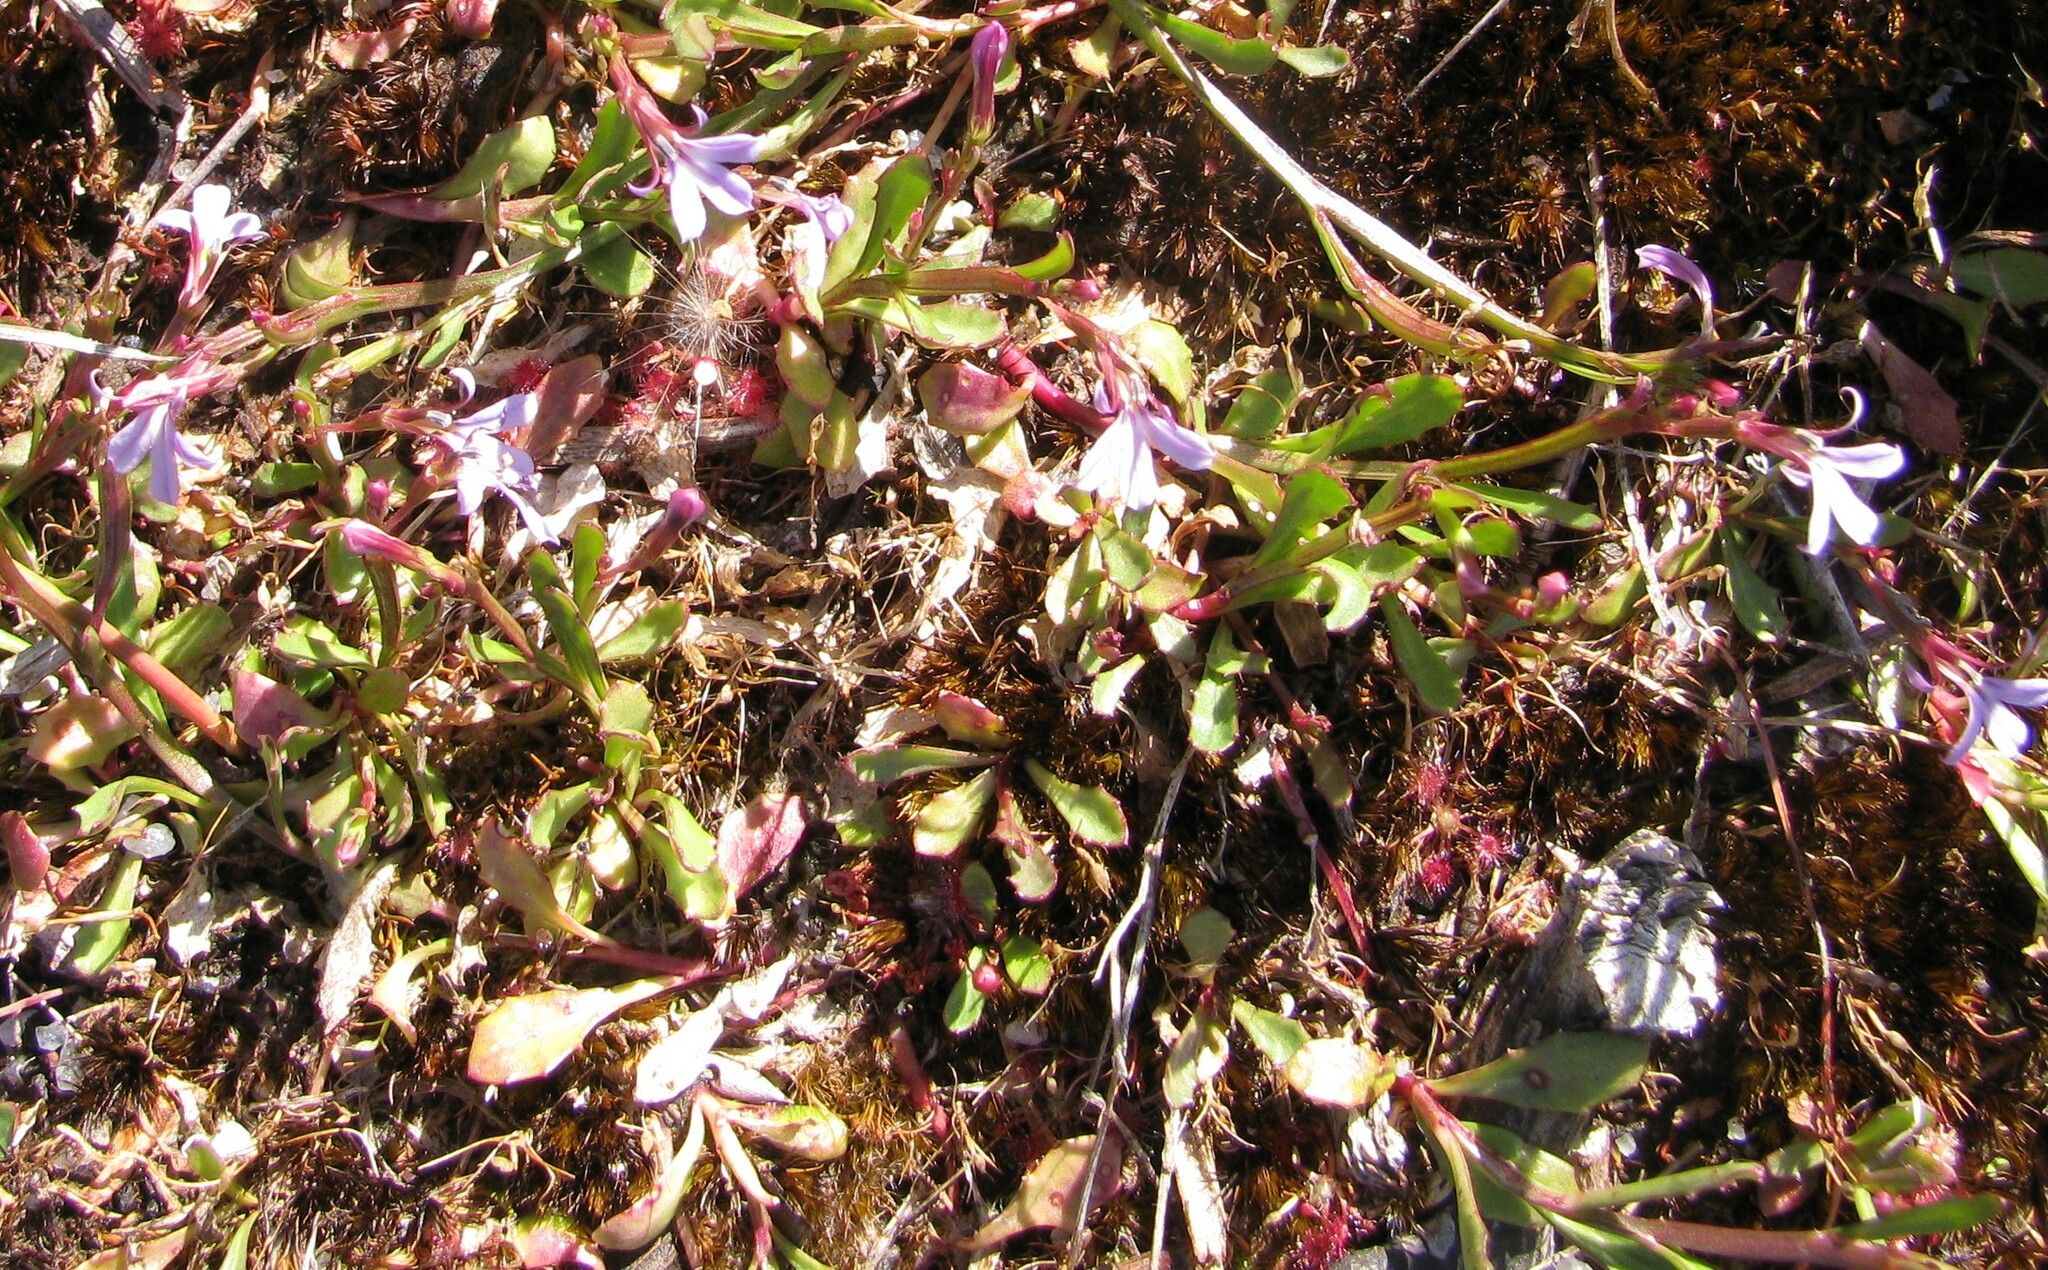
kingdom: Plantae
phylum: Tracheophyta
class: Magnoliopsida
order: Asterales
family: Campanulaceae
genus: Lobelia
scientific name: Lobelia anceps
